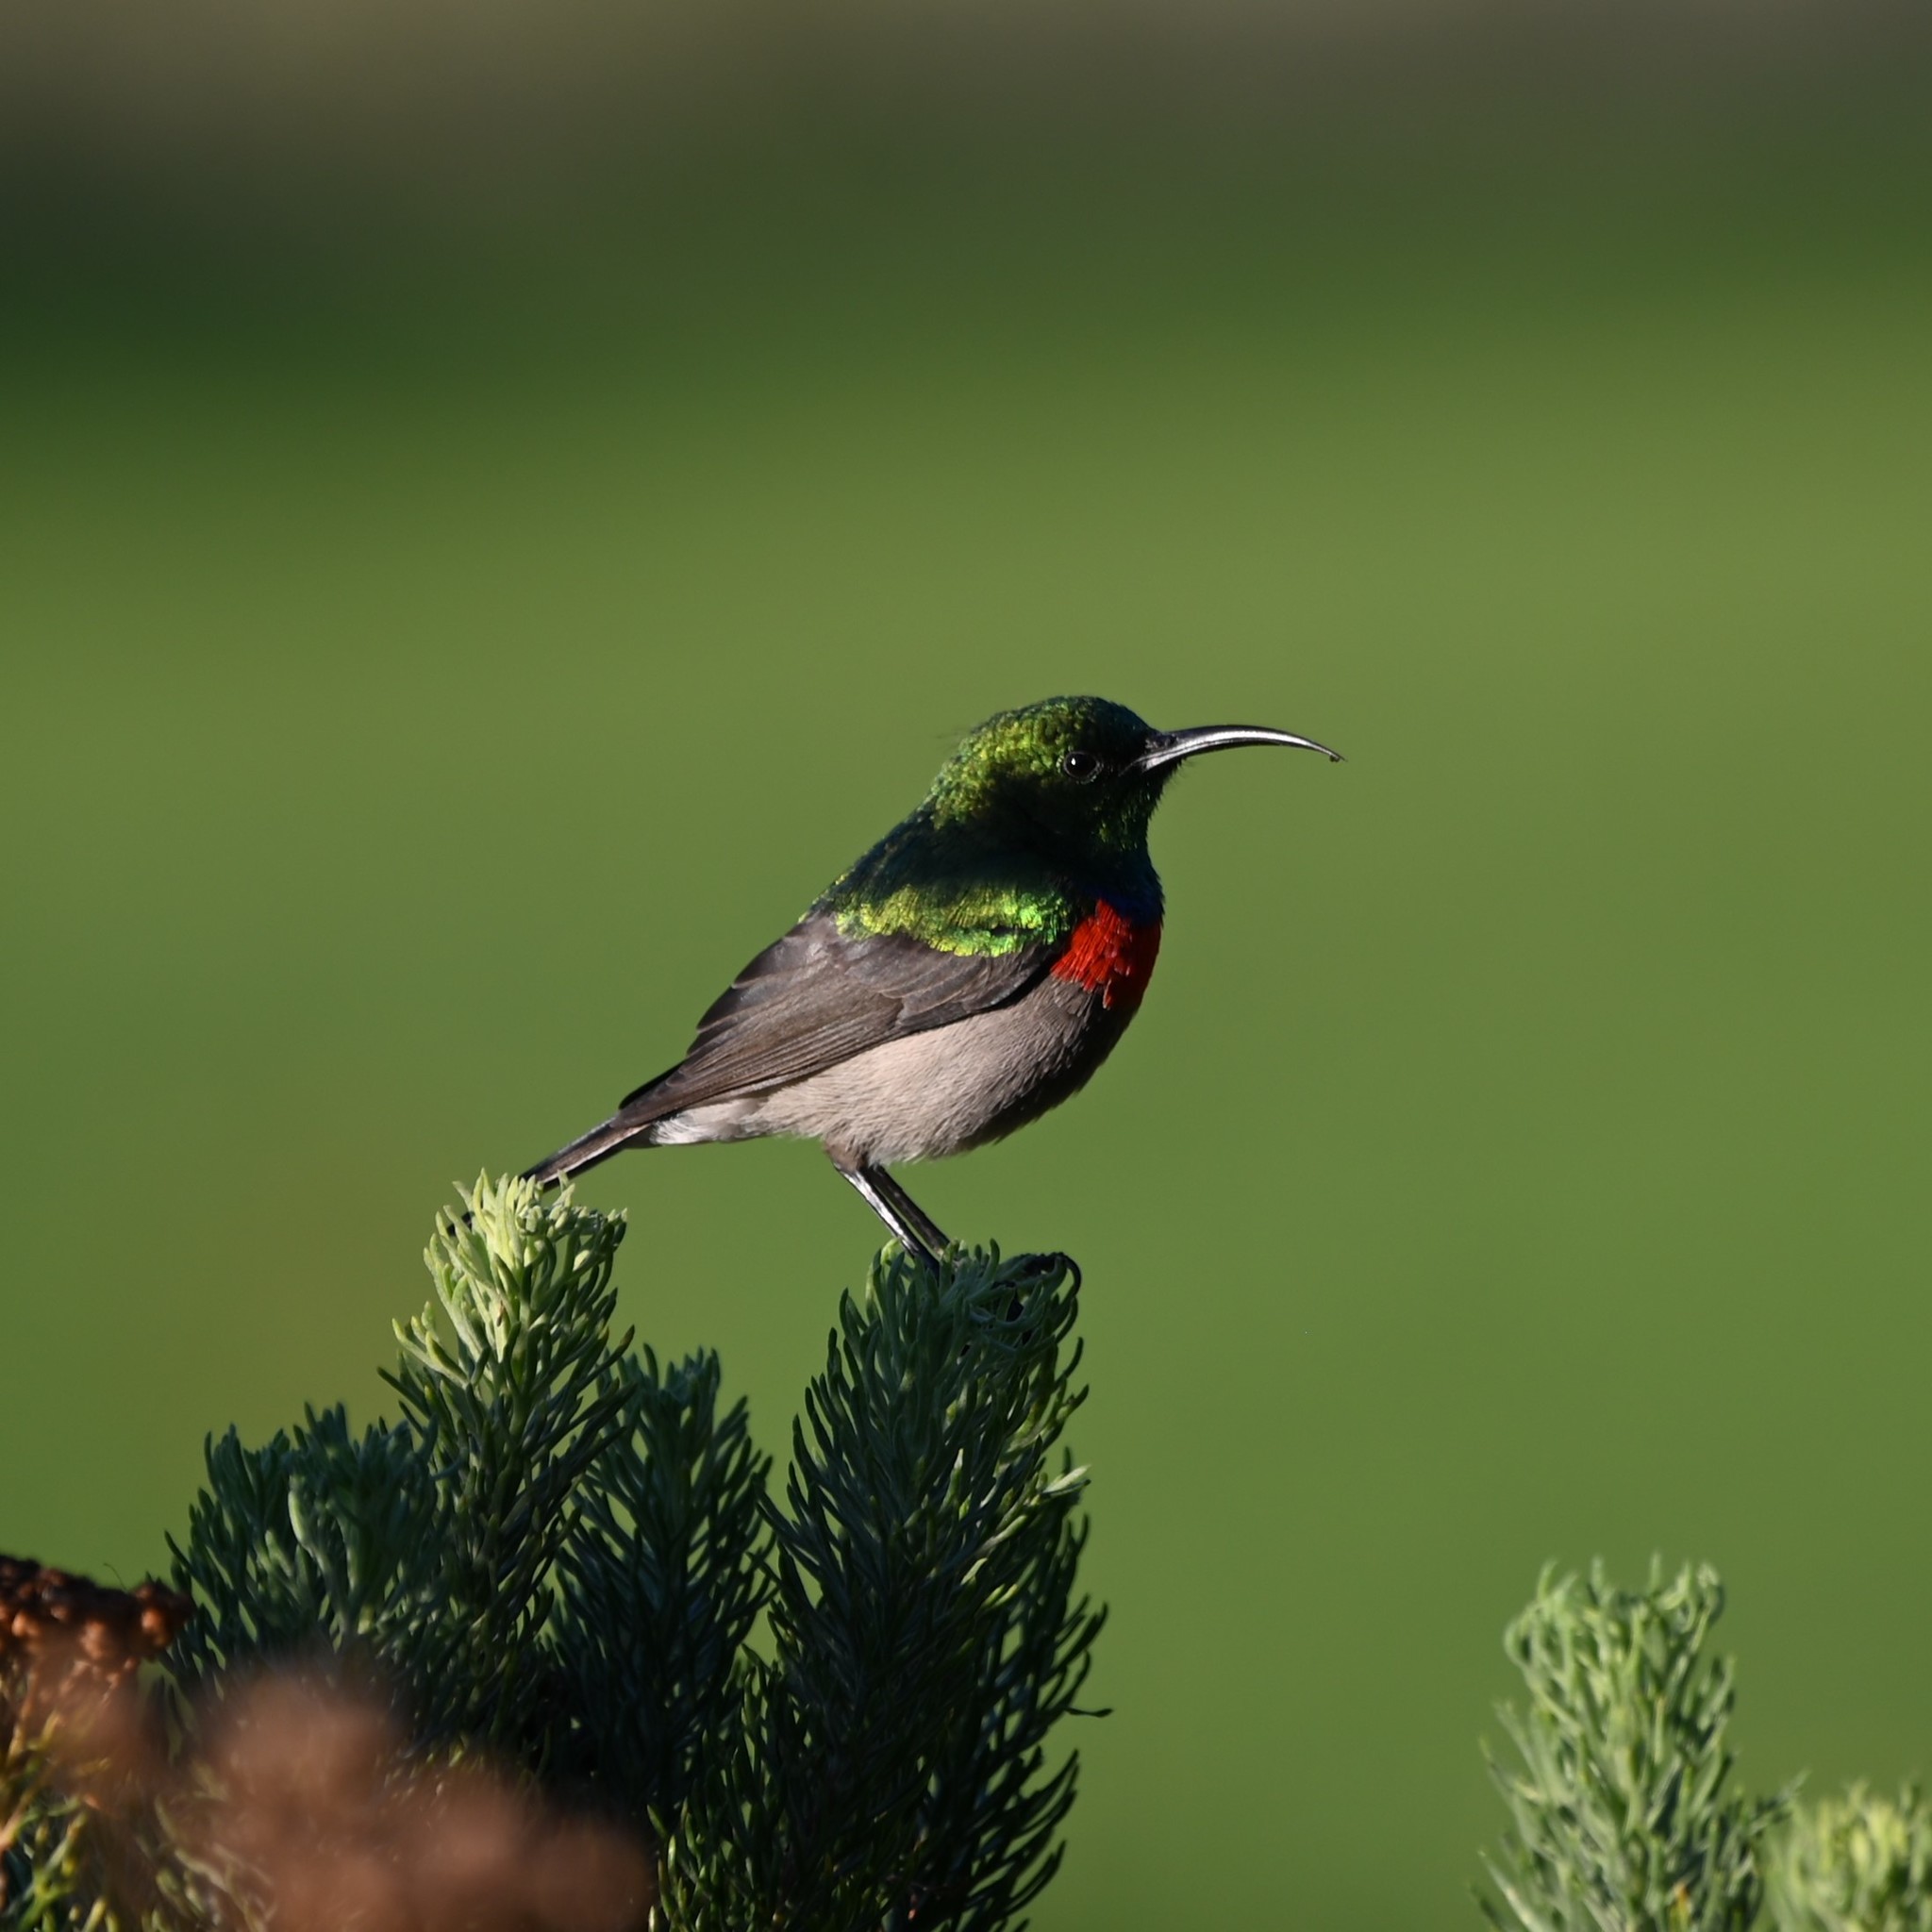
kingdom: Animalia
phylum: Chordata
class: Aves
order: Passeriformes
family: Nectariniidae
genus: Cinnyris
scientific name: Cinnyris chalybeus
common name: Southern double-collared sunbird
